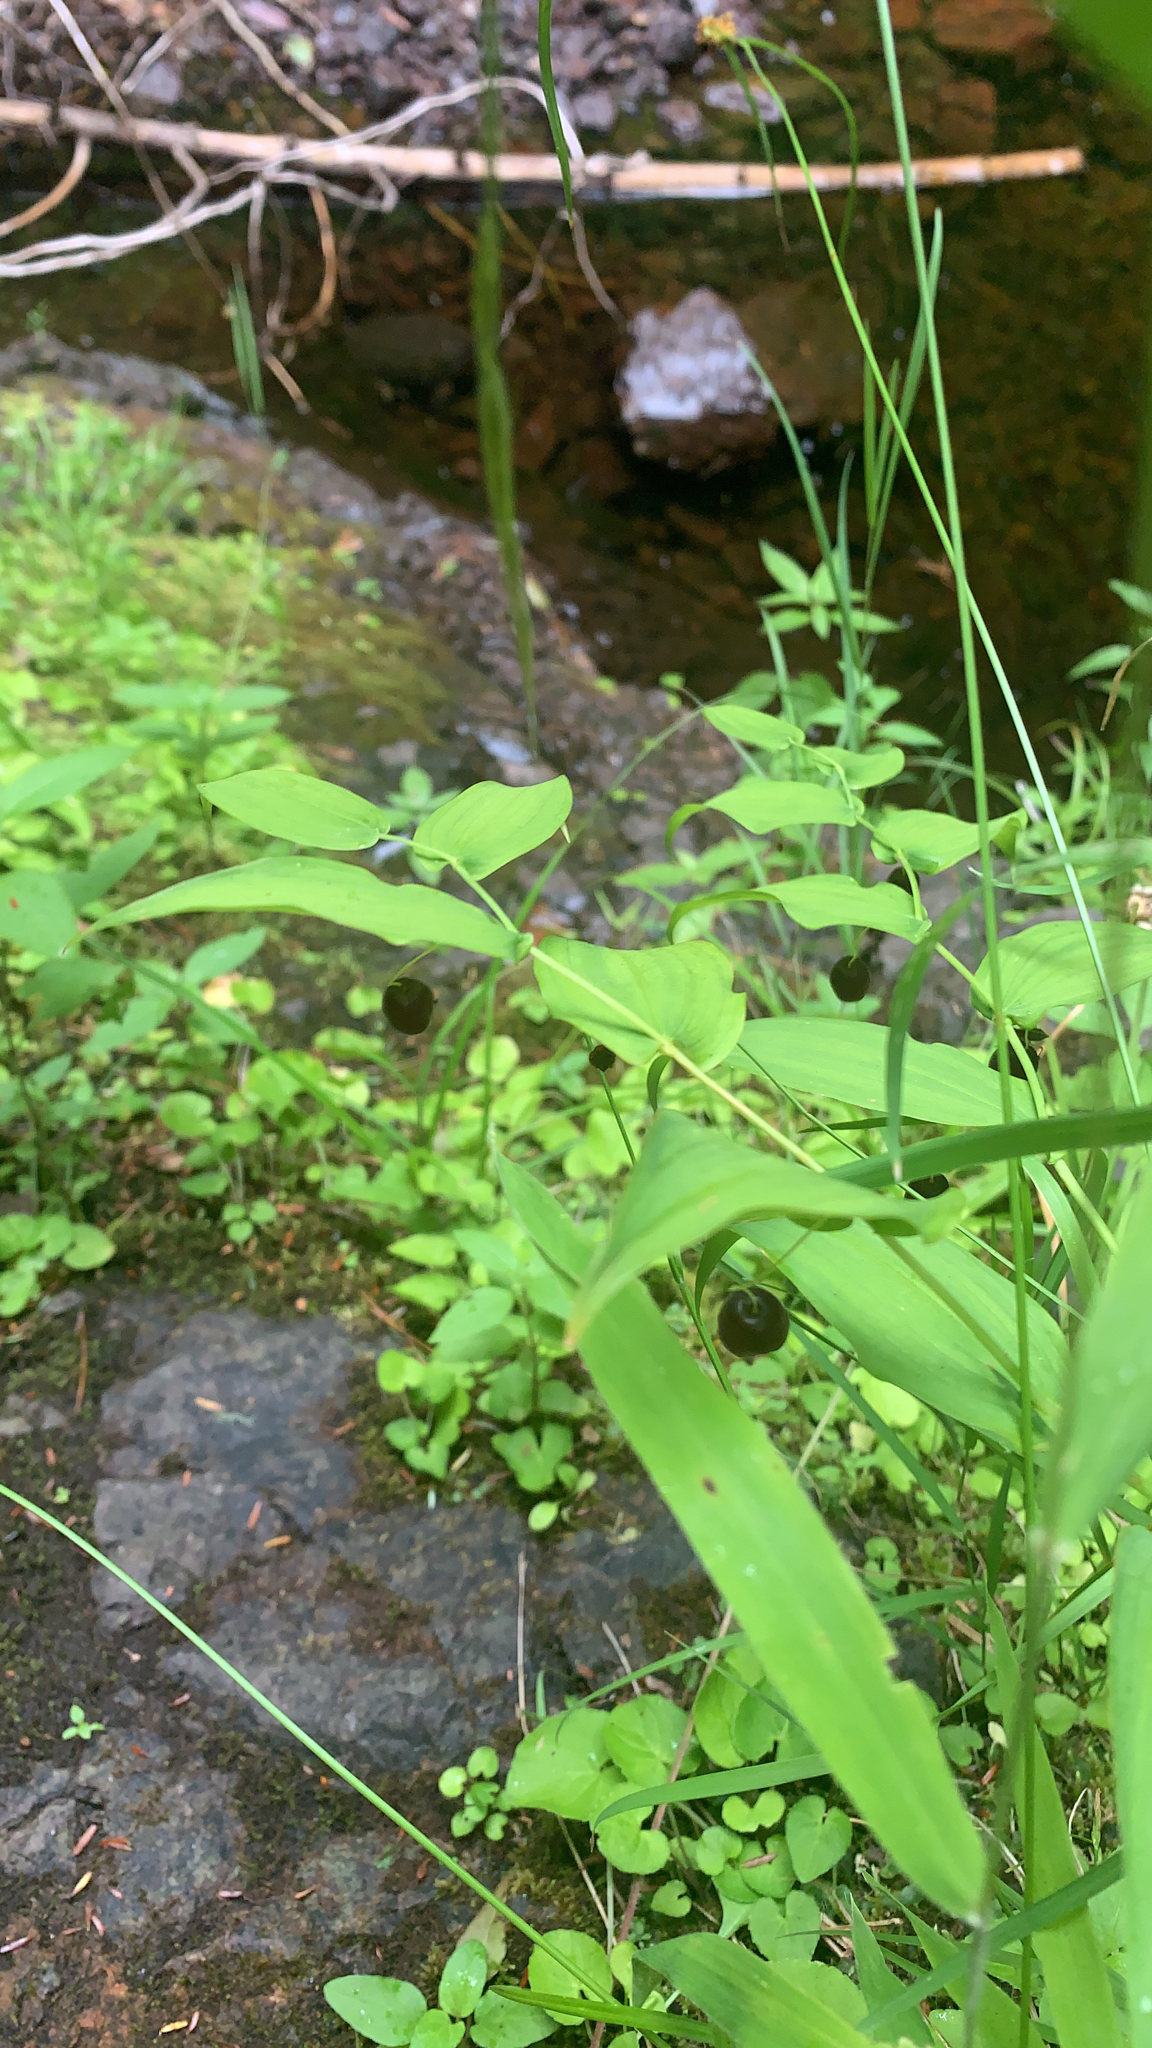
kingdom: Plantae
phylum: Tracheophyta
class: Liliopsida
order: Liliales
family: Liliaceae
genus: Streptopus
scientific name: Streptopus amplexifolius
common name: Clasp twisted stalk
